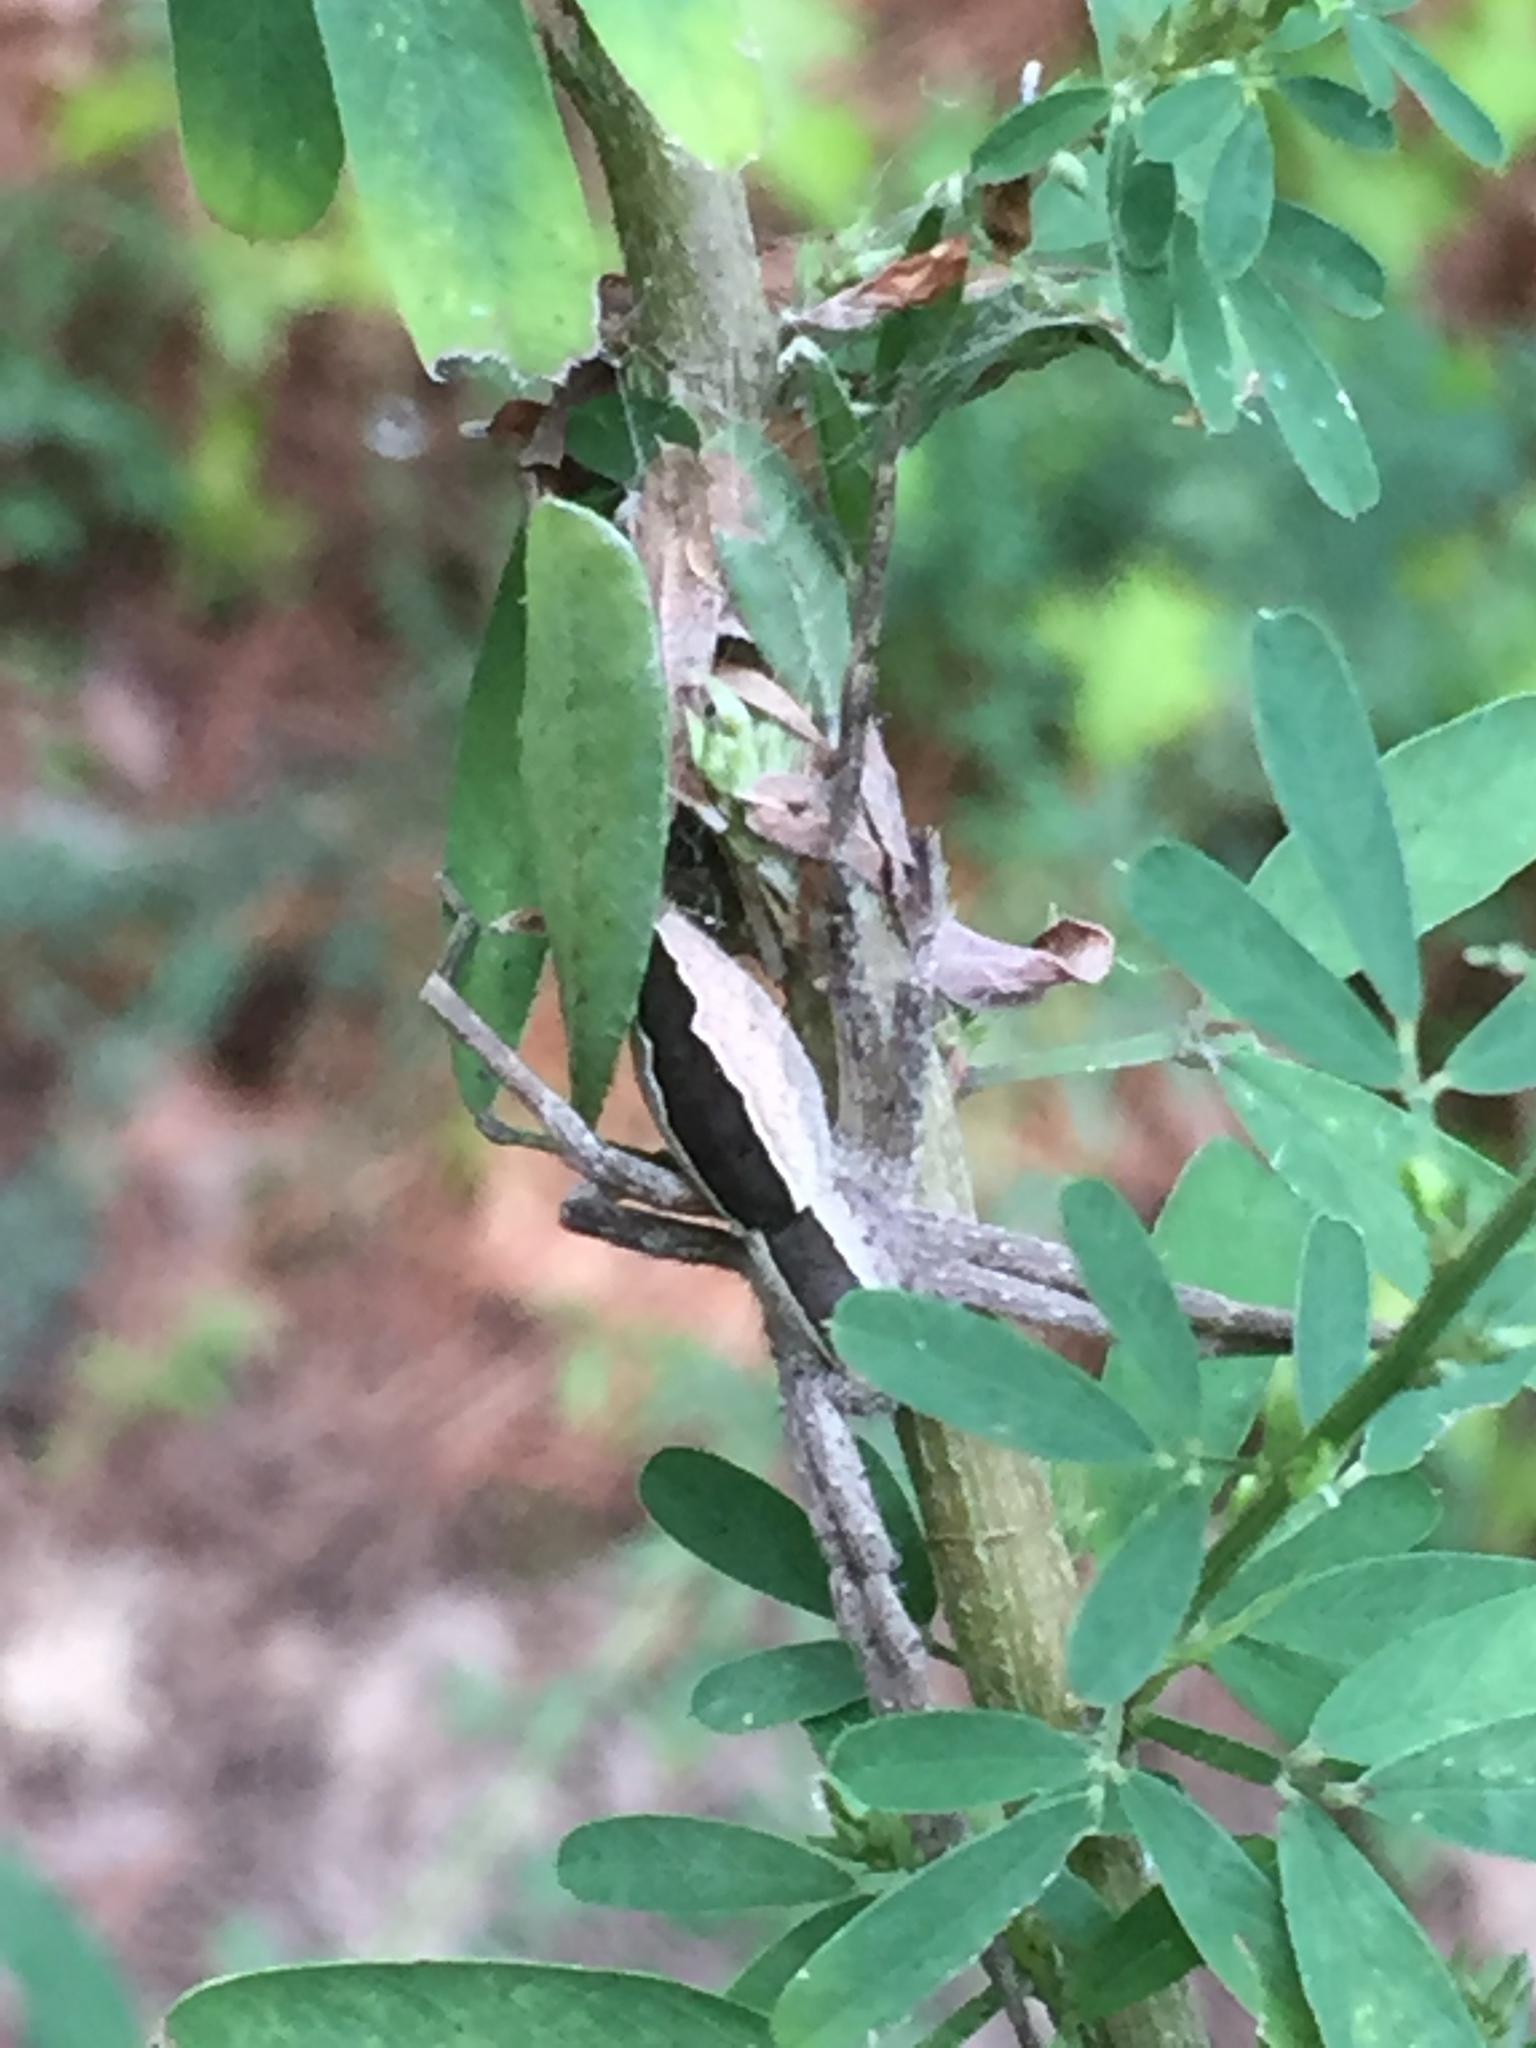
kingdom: Animalia
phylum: Arthropoda
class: Arachnida
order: Araneae
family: Pisauridae
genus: Pisaurina
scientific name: Pisaurina mira
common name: American nursery web spider
